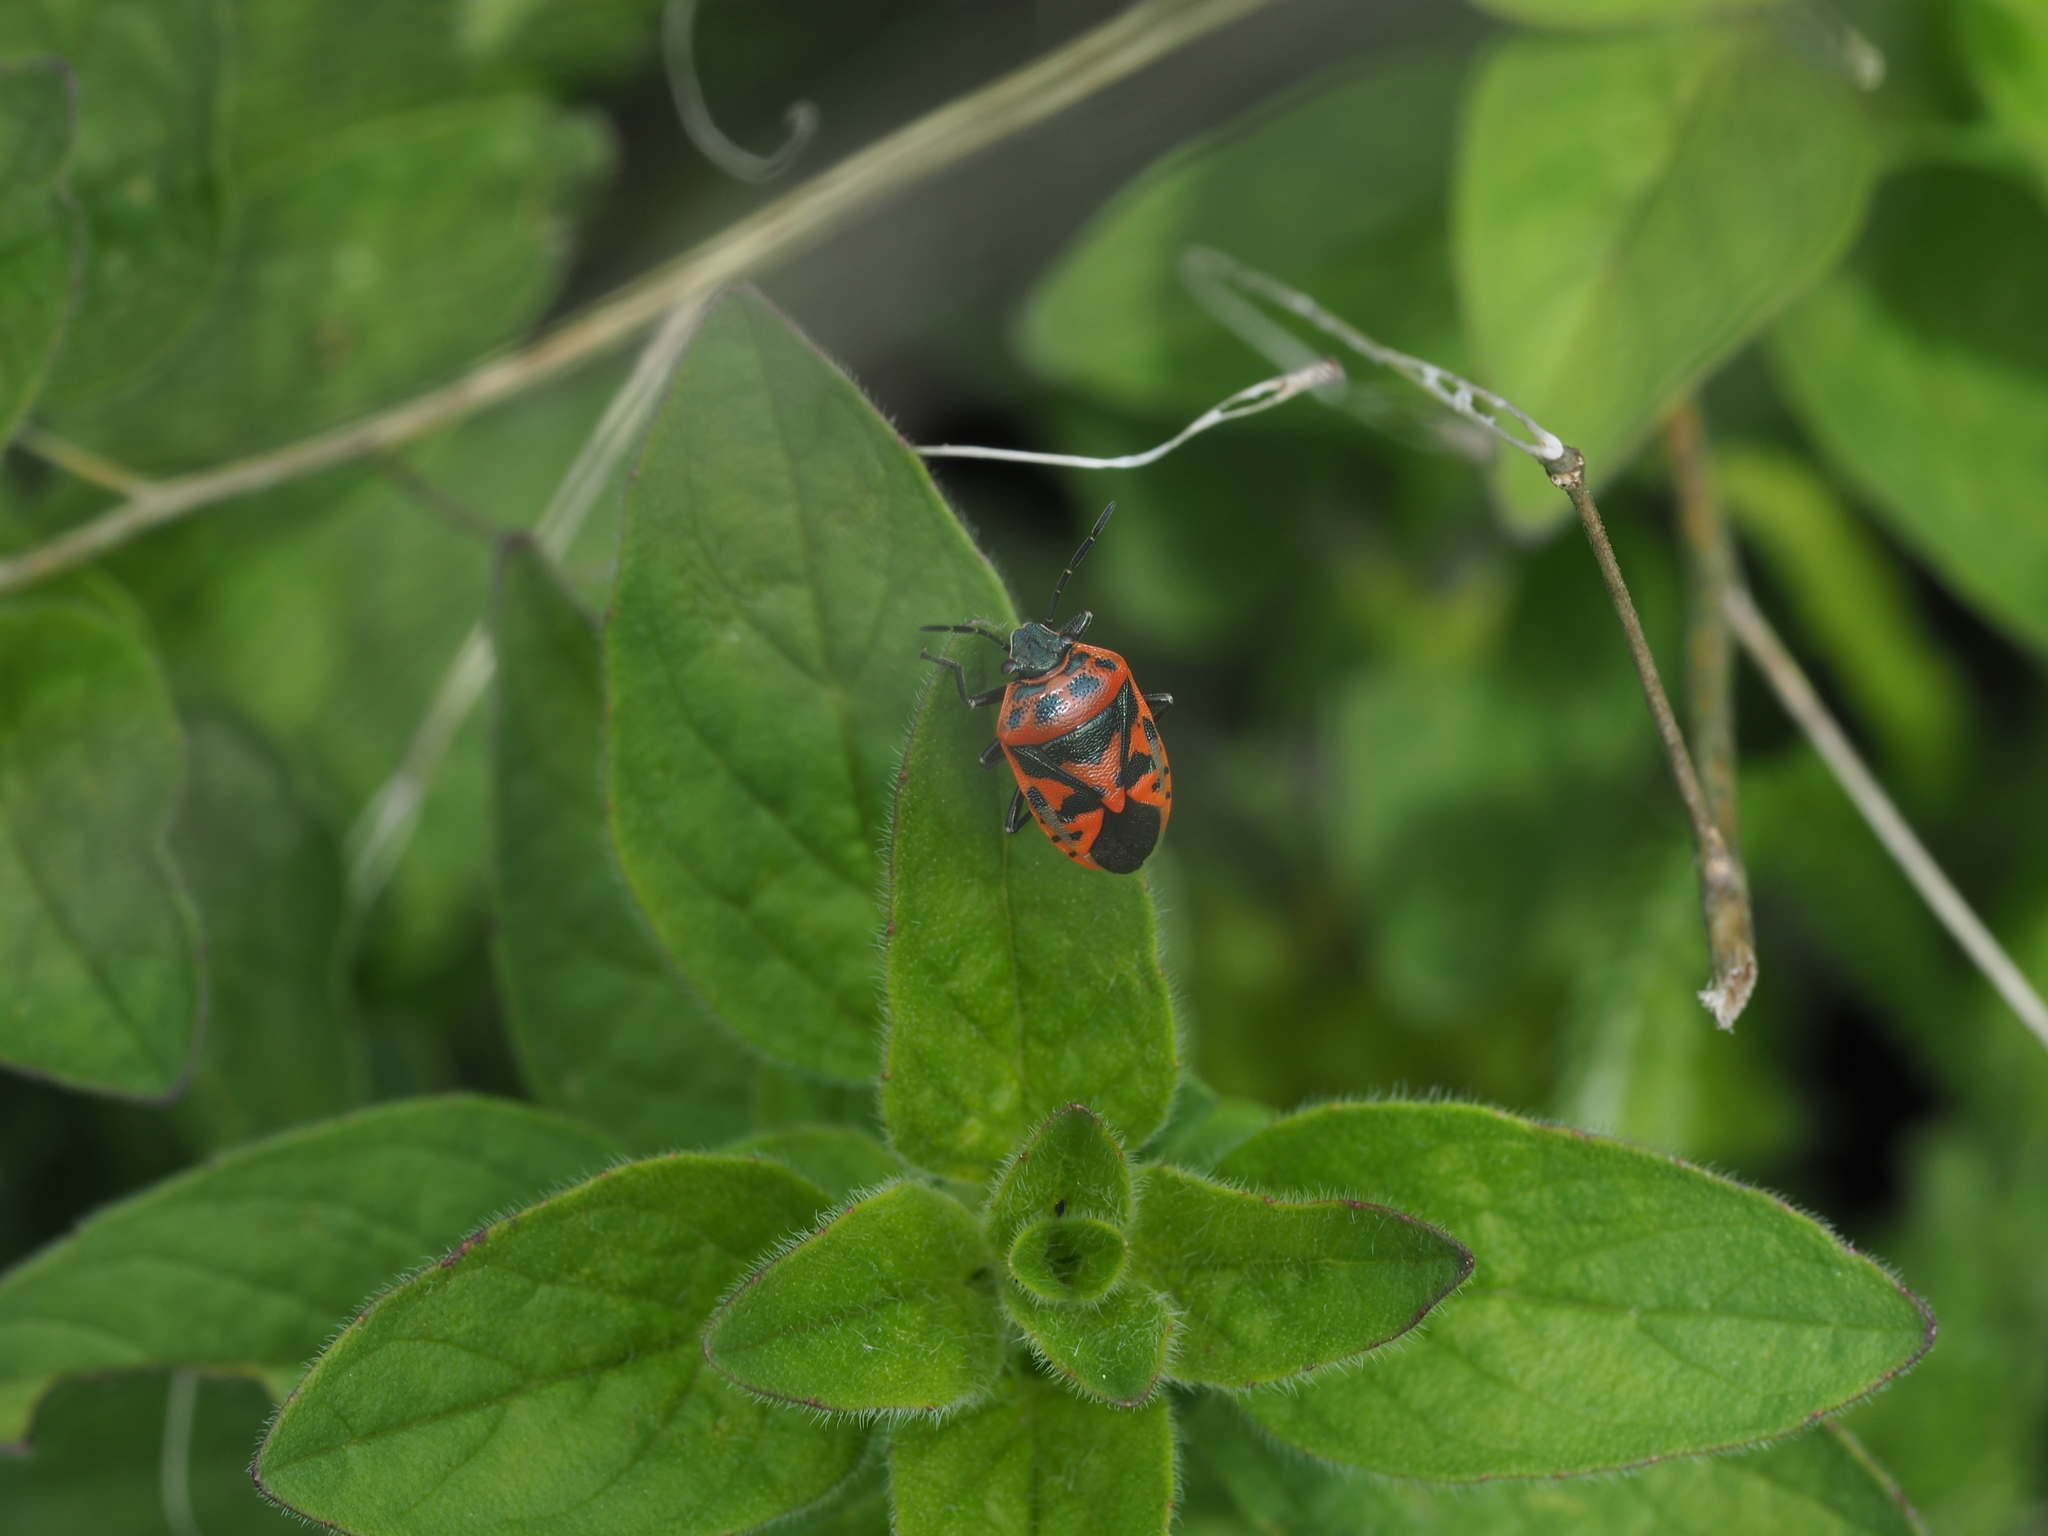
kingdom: Animalia
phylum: Arthropoda
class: Insecta
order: Hemiptera
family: Pentatomidae
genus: Eurydema
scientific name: Eurydema ornata
